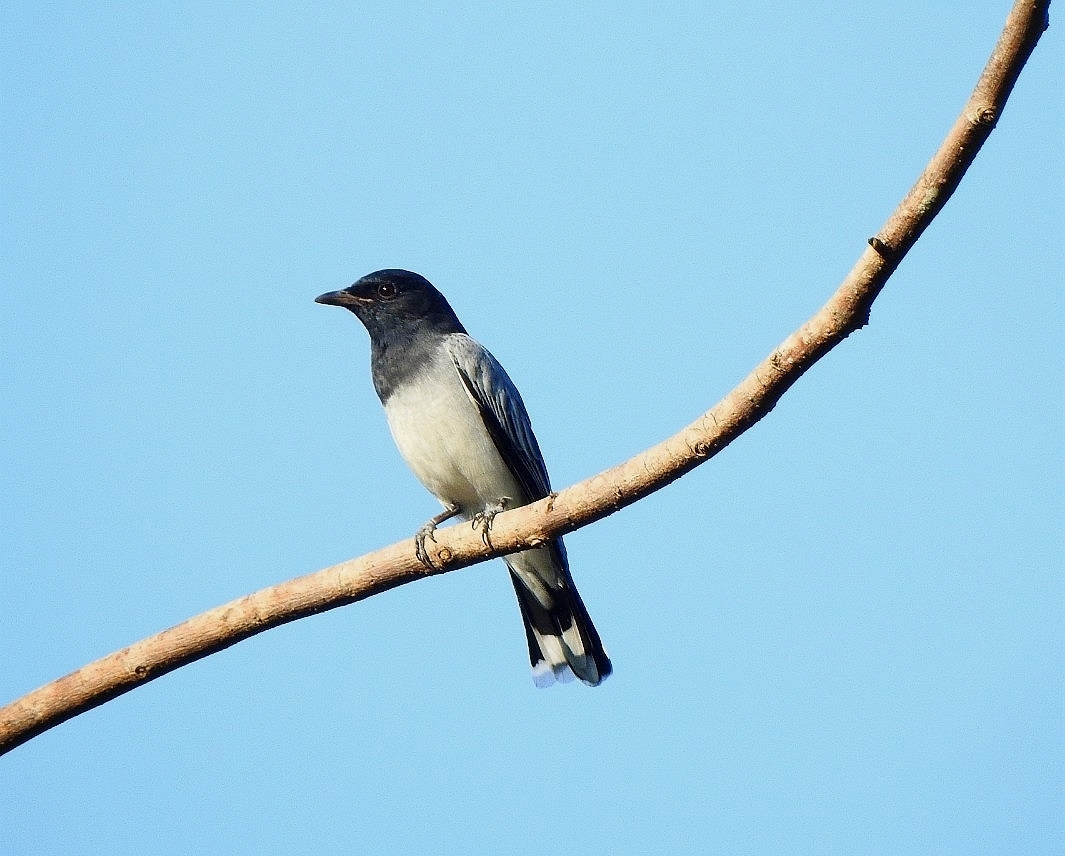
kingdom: Animalia
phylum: Chordata
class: Aves
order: Passeriformes
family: Campephagidae
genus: Coracina
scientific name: Coracina melanoptera
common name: Black-headed cuckooshrike
